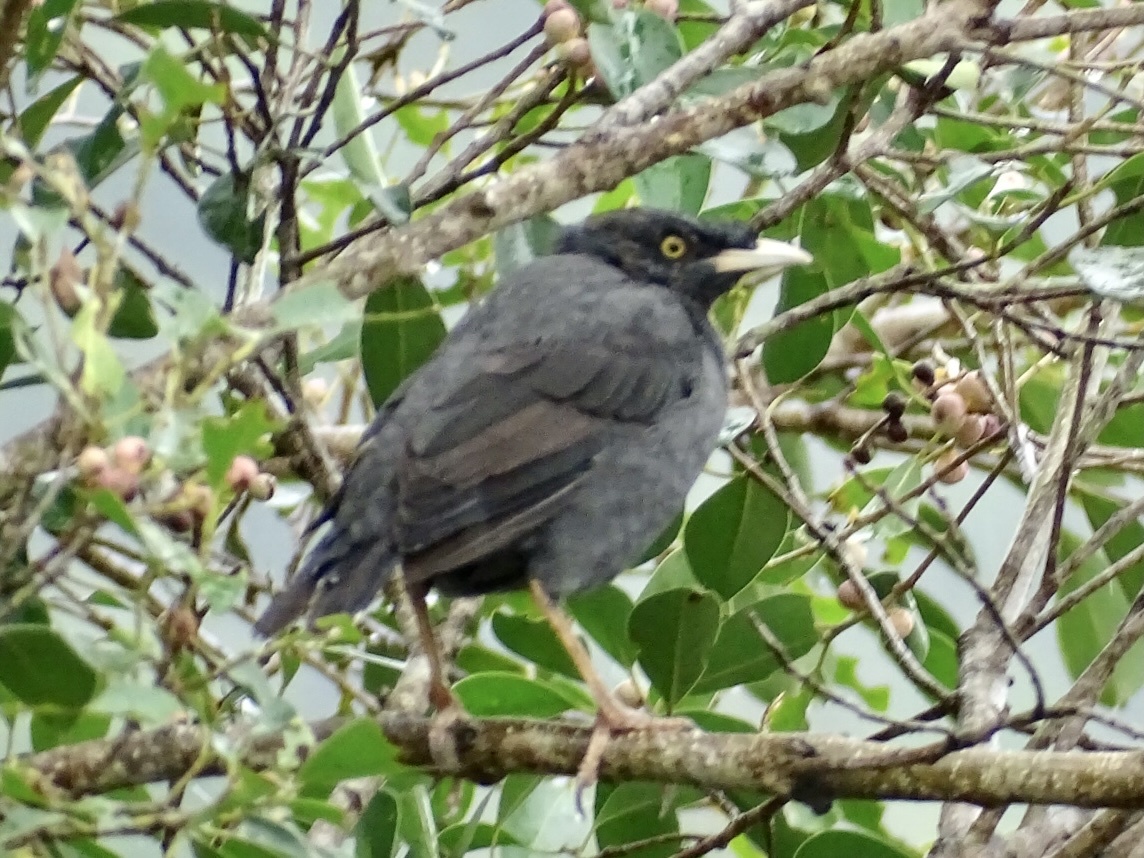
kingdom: Animalia
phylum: Chordata
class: Aves
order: Passeriformes
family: Sturnidae
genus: Acridotheres
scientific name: Acridotheres cristatellus
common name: Crested myna
